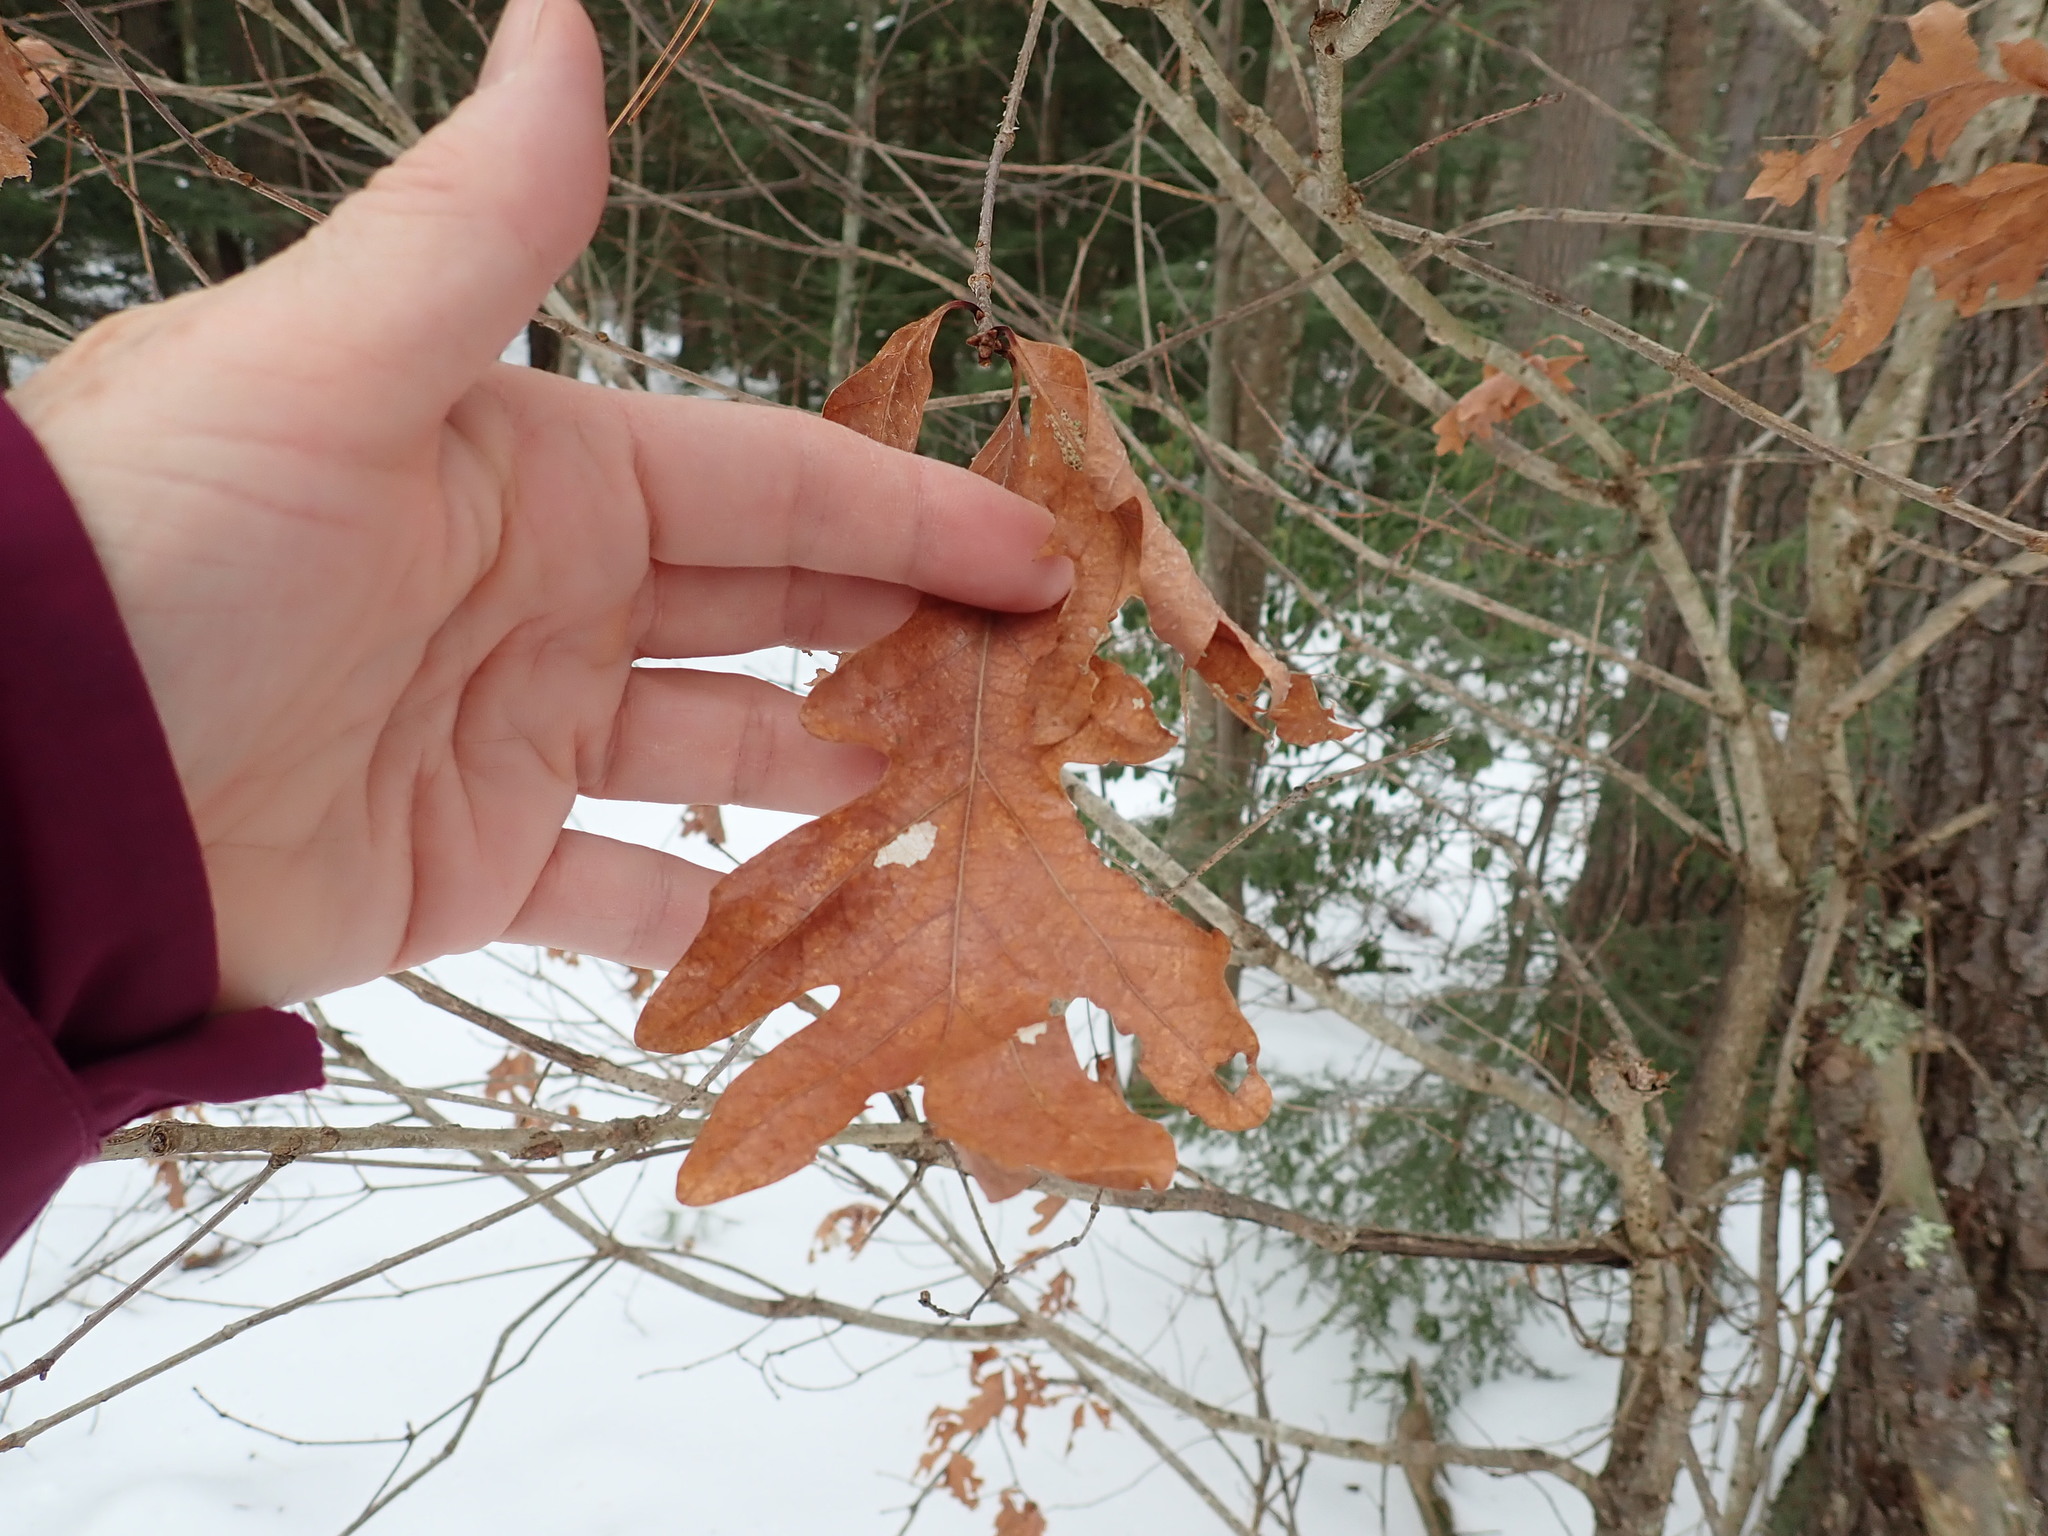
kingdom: Plantae
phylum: Tracheophyta
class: Magnoliopsida
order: Fagales
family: Fagaceae
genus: Quercus
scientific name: Quercus alba
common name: White oak
